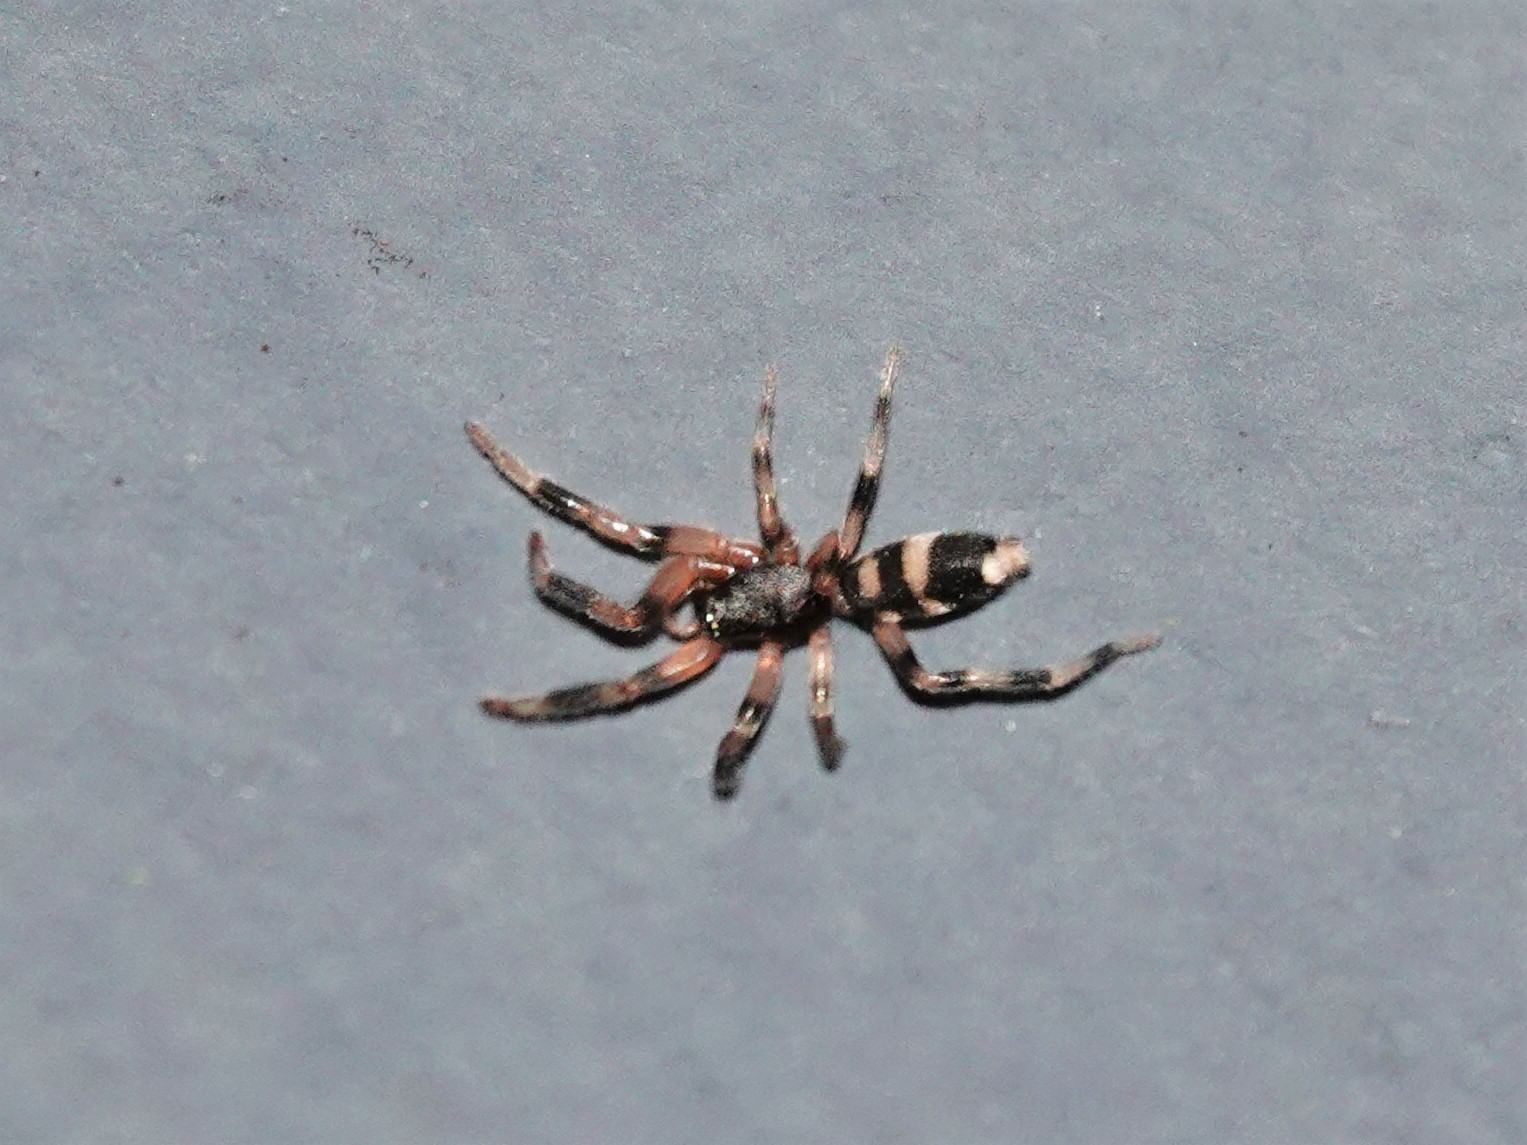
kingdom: Animalia
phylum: Arthropoda
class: Arachnida
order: Araneae
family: Lamponidae
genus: Lampona
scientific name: Lampona murina
